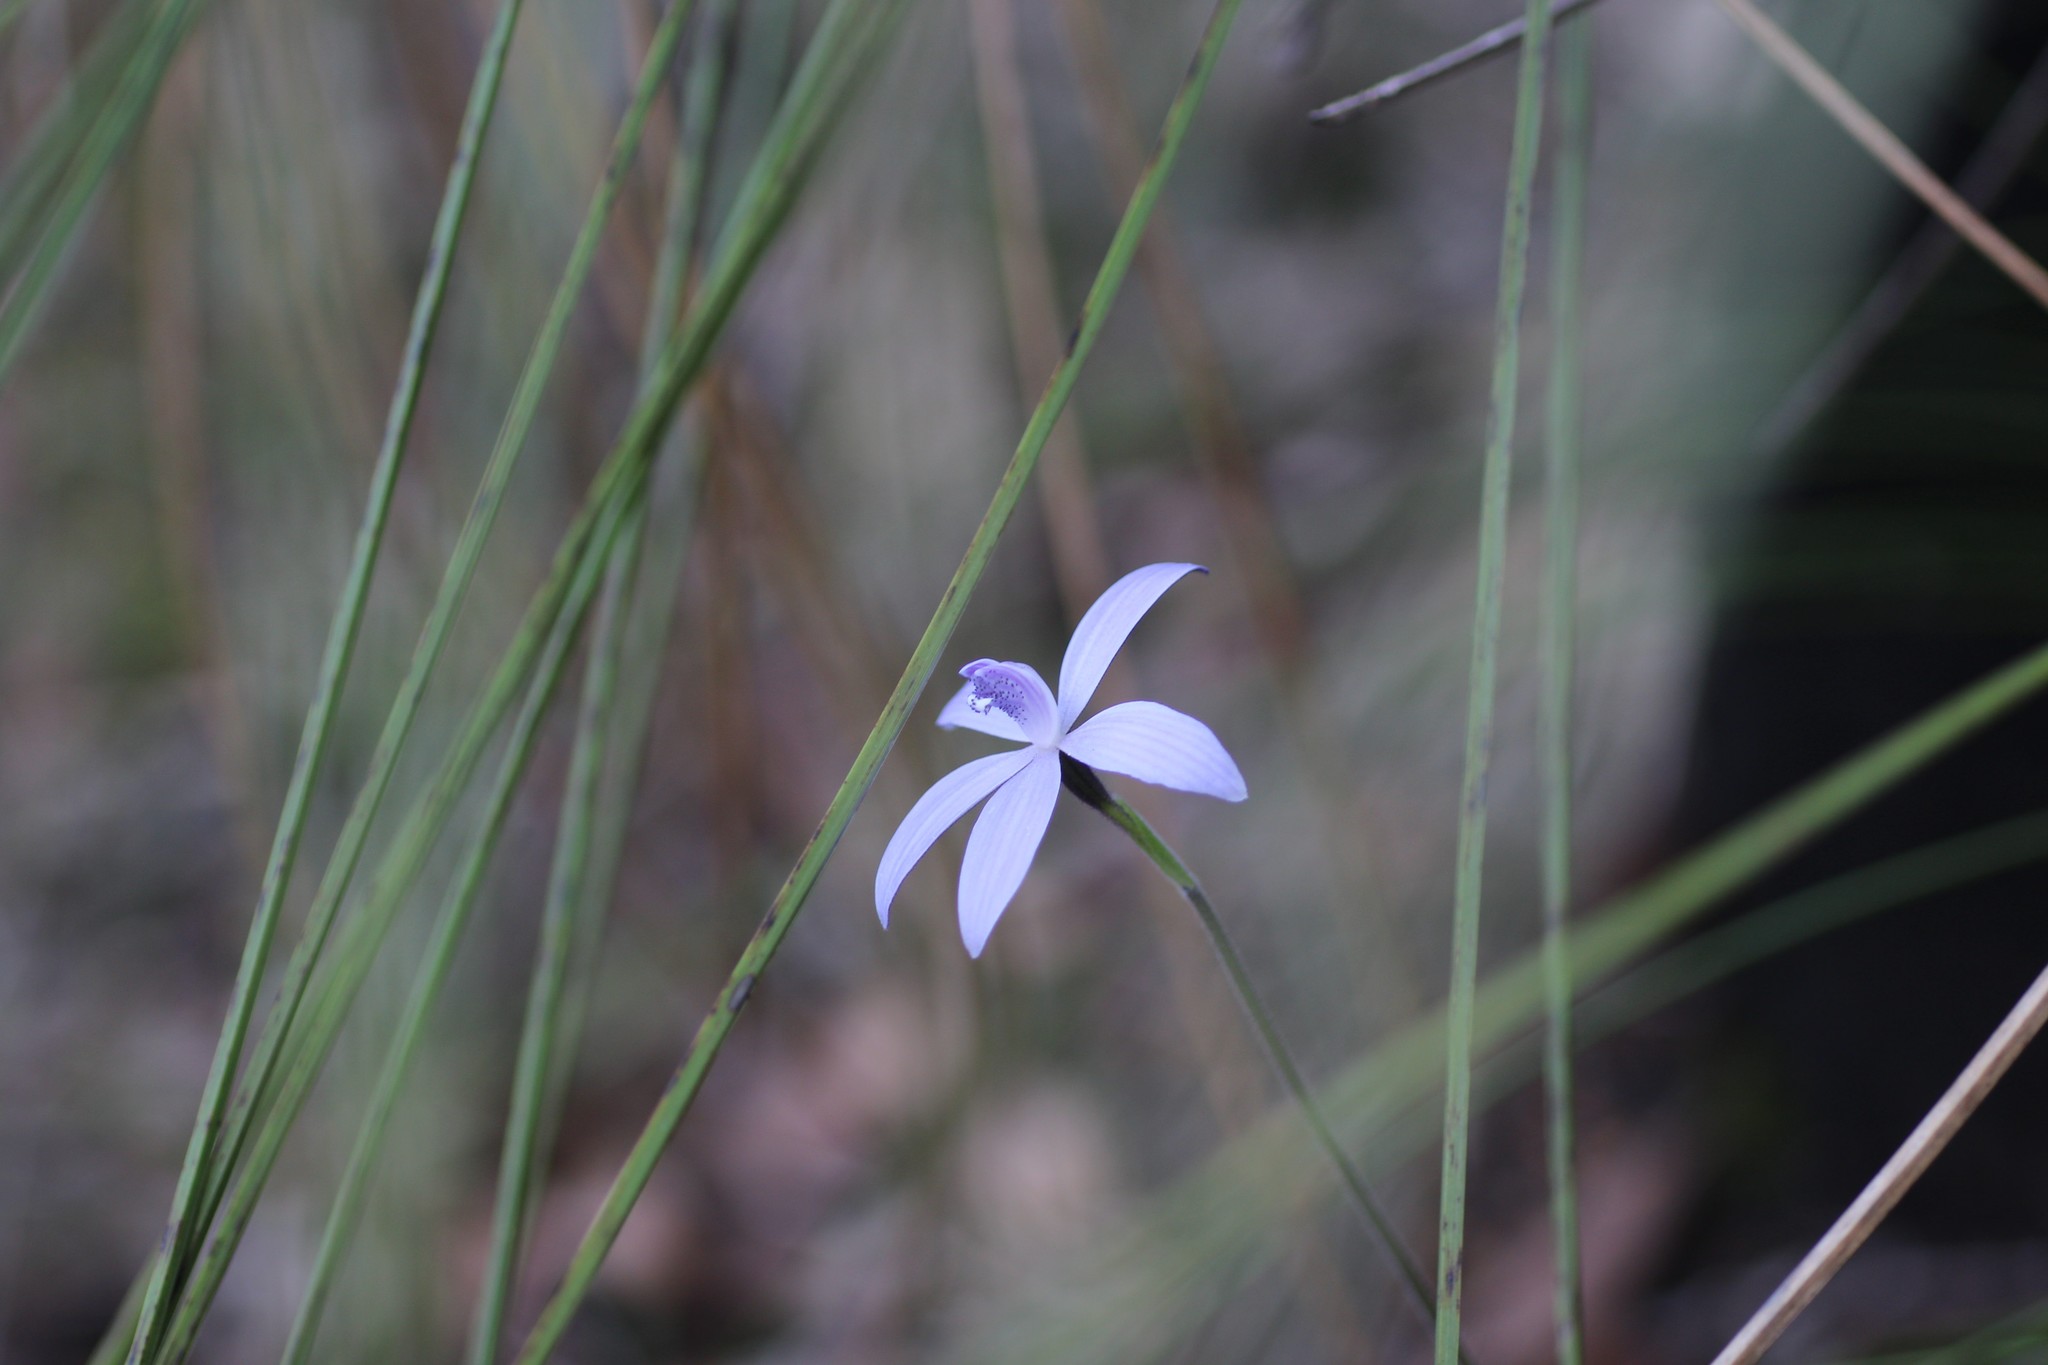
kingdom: Plantae
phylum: Tracheophyta
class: Liliopsida
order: Asparagales
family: Orchidaceae
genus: Caladenia
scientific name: Caladenia sericea
